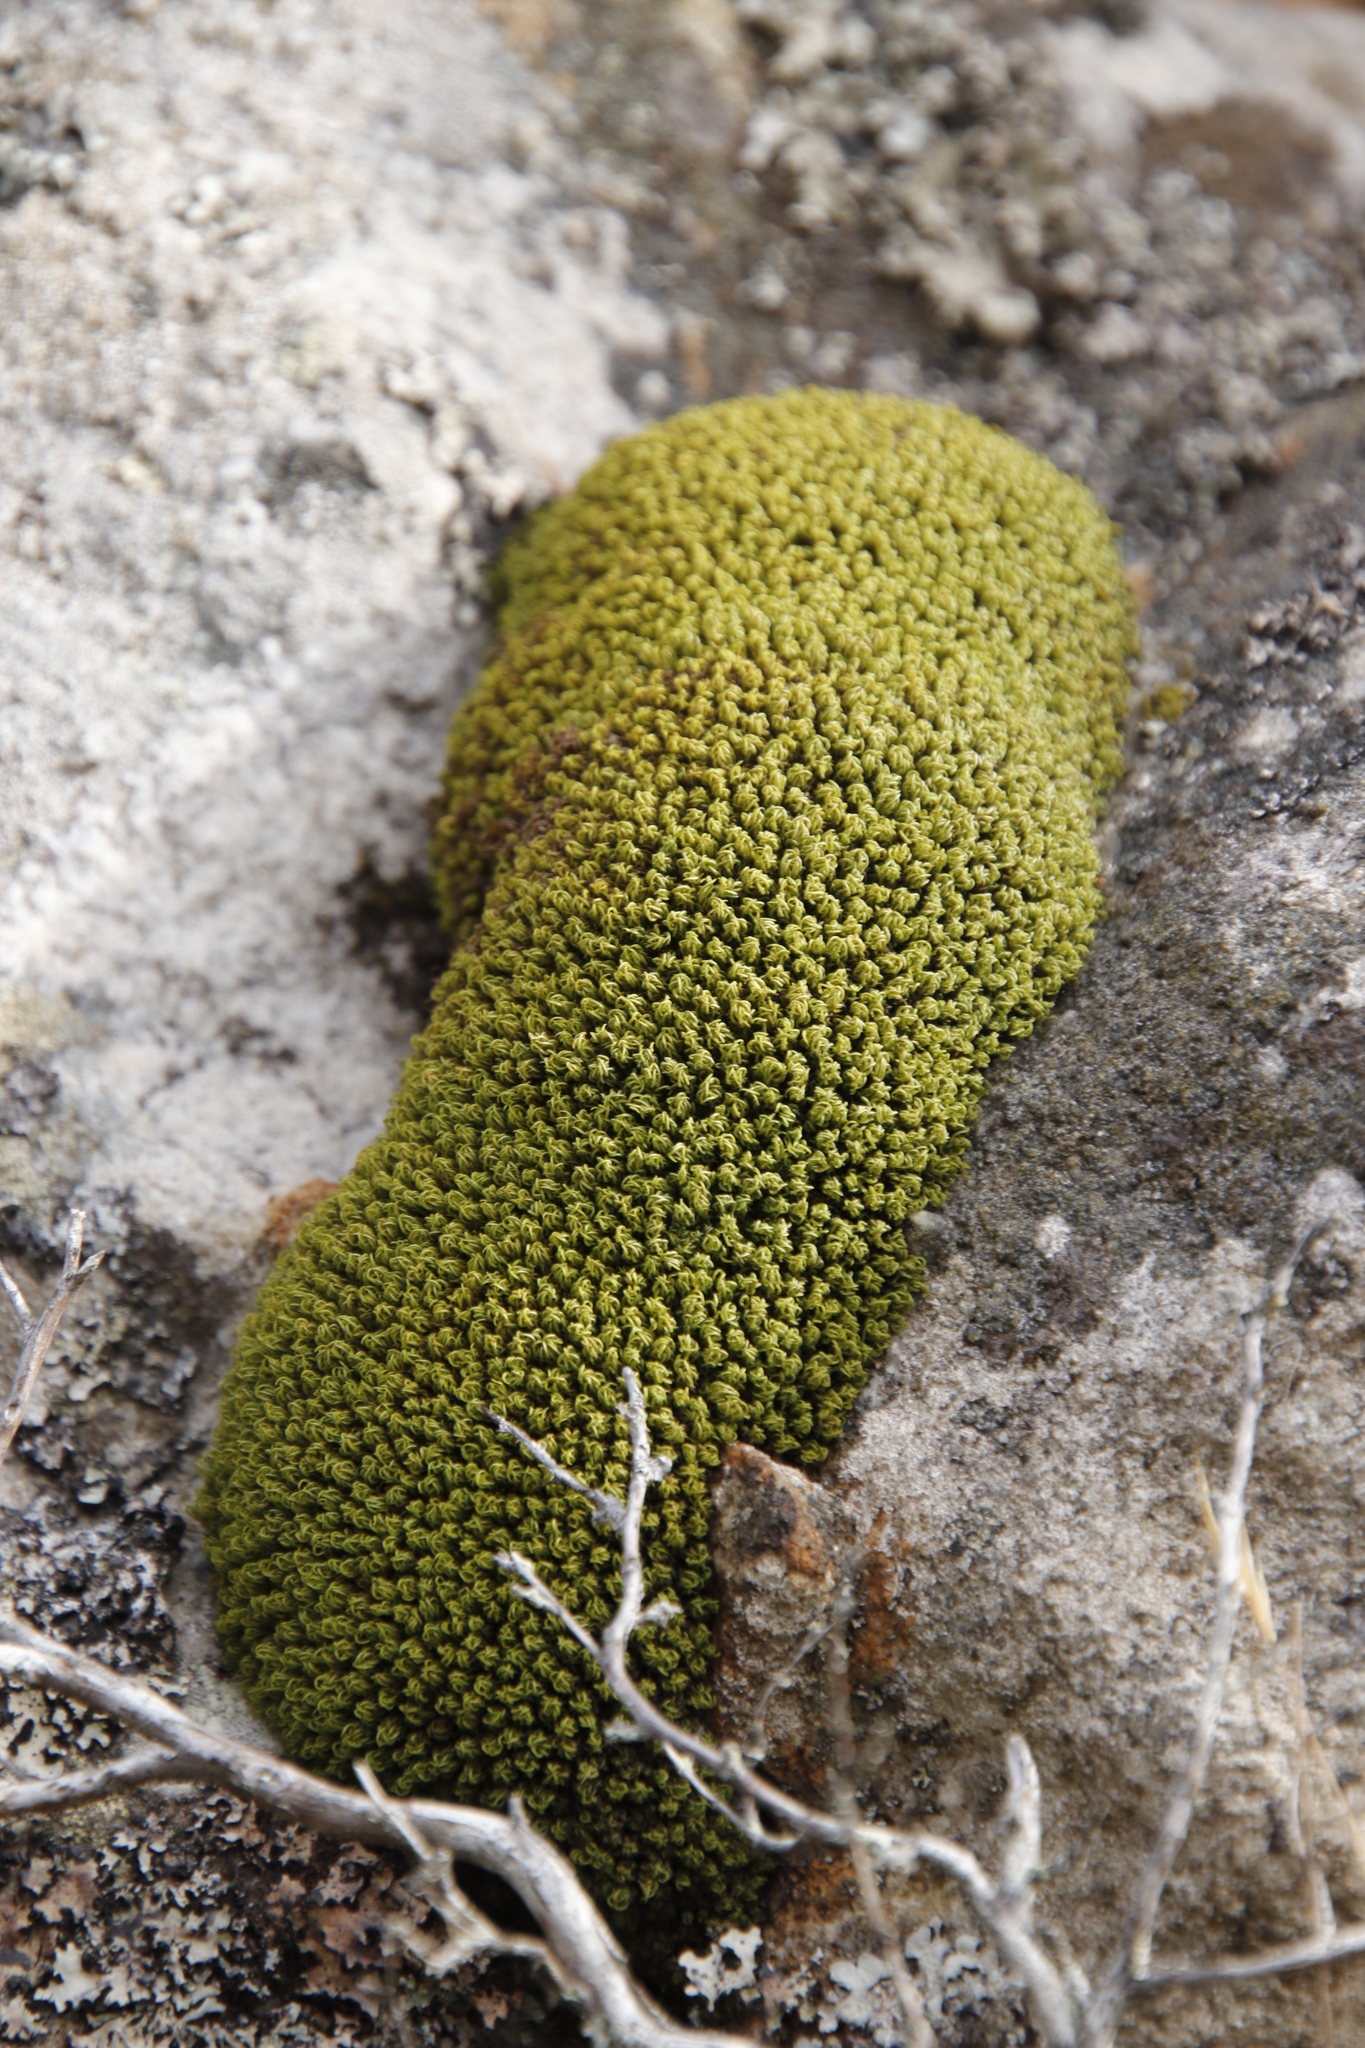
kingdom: Plantae
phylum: Bryophyta
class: Bryopsida
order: Pottiales
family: Pottiaceae
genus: Trichostomum
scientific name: Trichostomum brachydontium
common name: Variable crisp-moss
